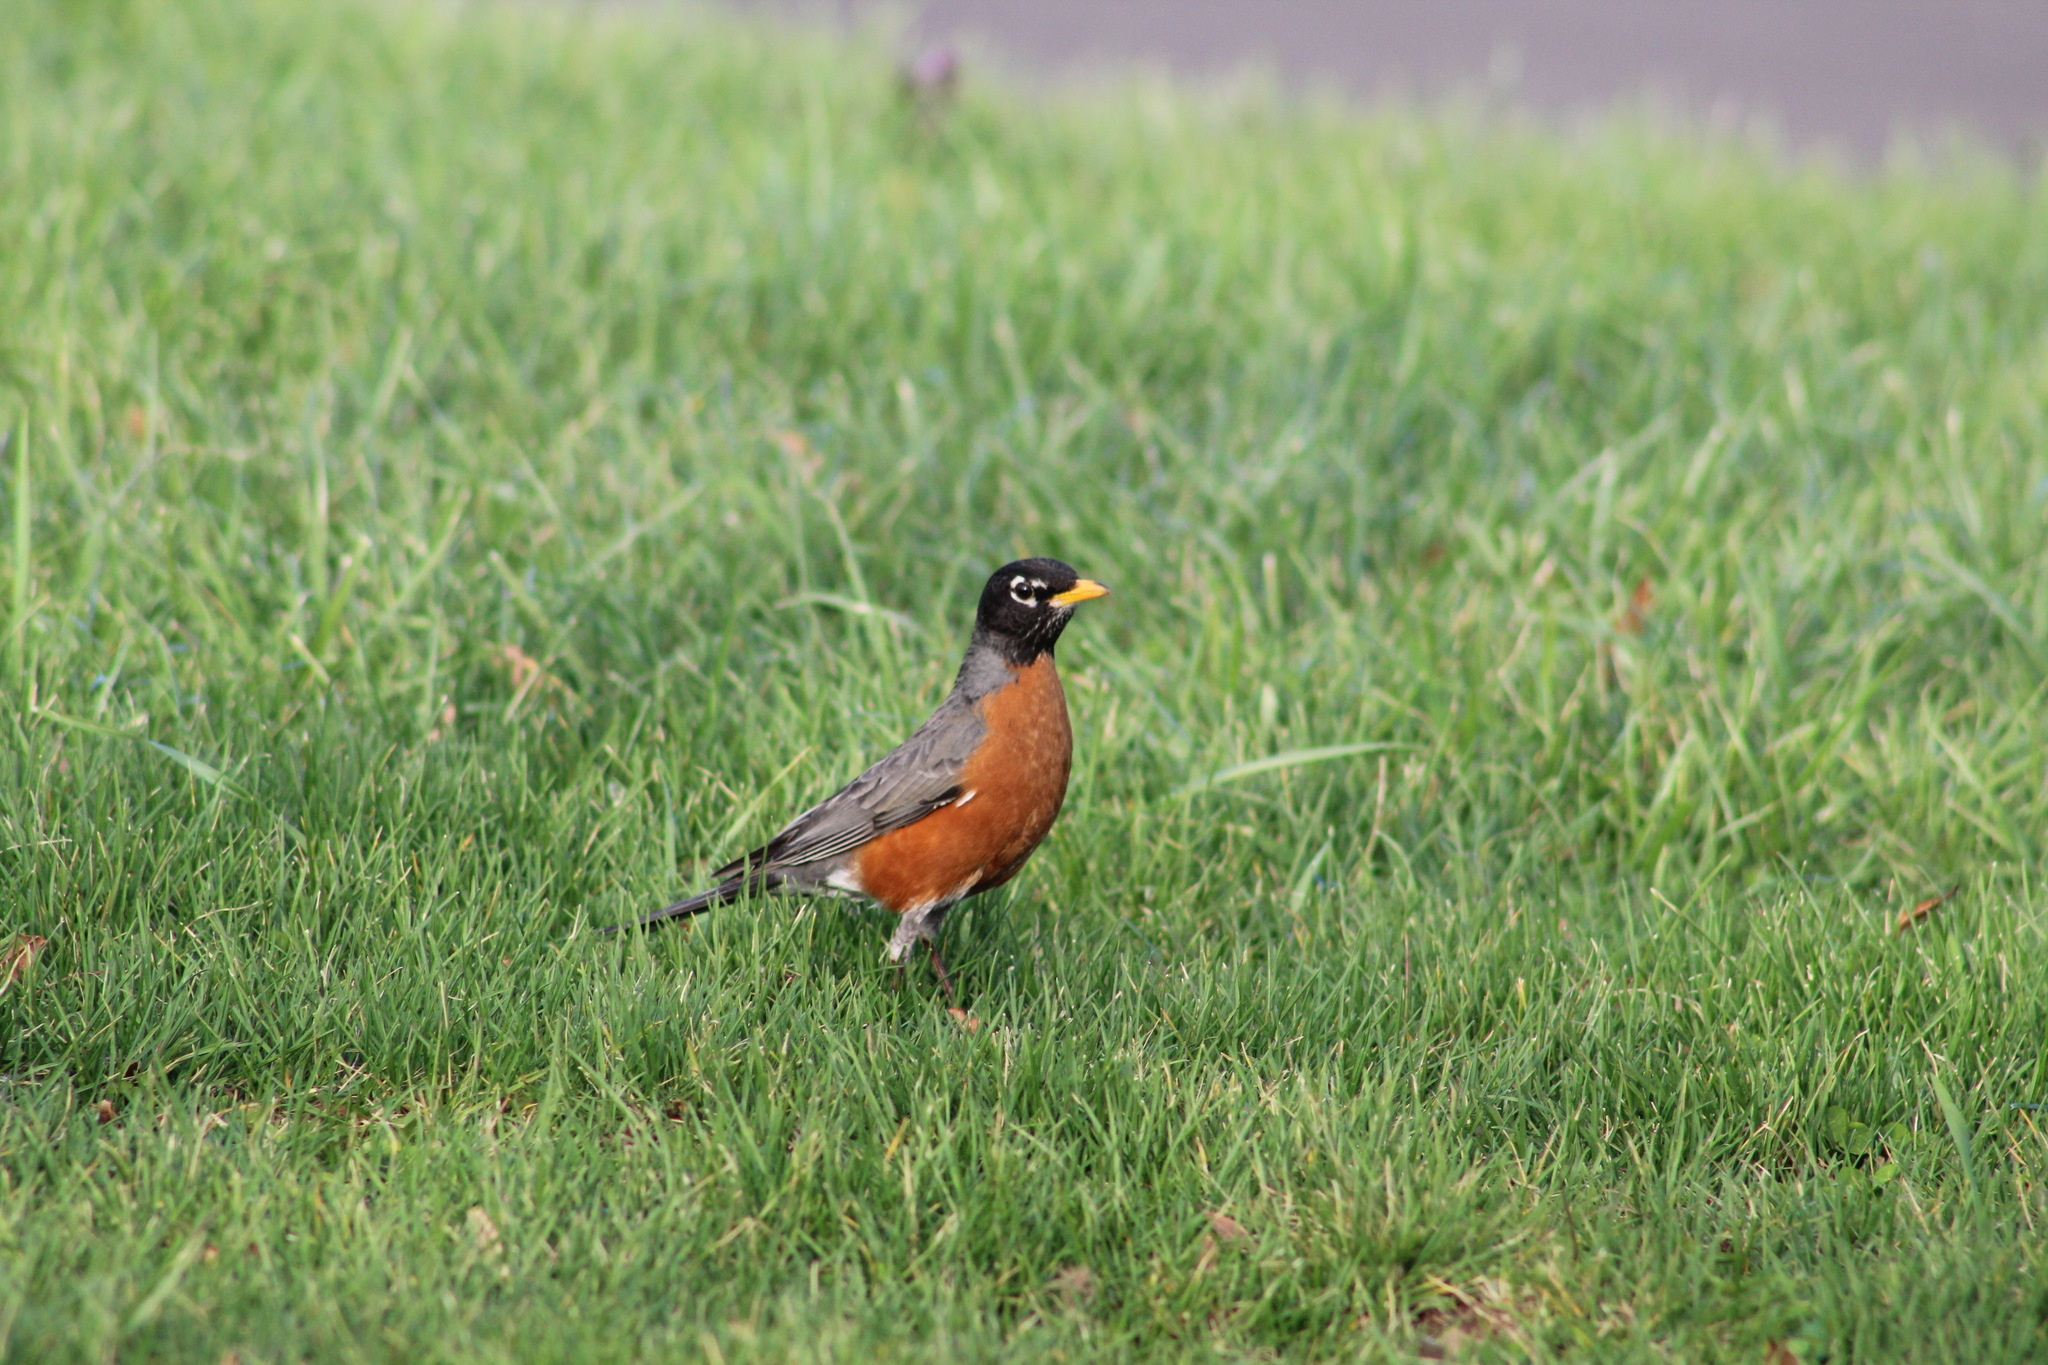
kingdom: Animalia
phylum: Chordata
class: Aves
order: Passeriformes
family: Turdidae
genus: Turdus
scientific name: Turdus migratorius
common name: American robin
